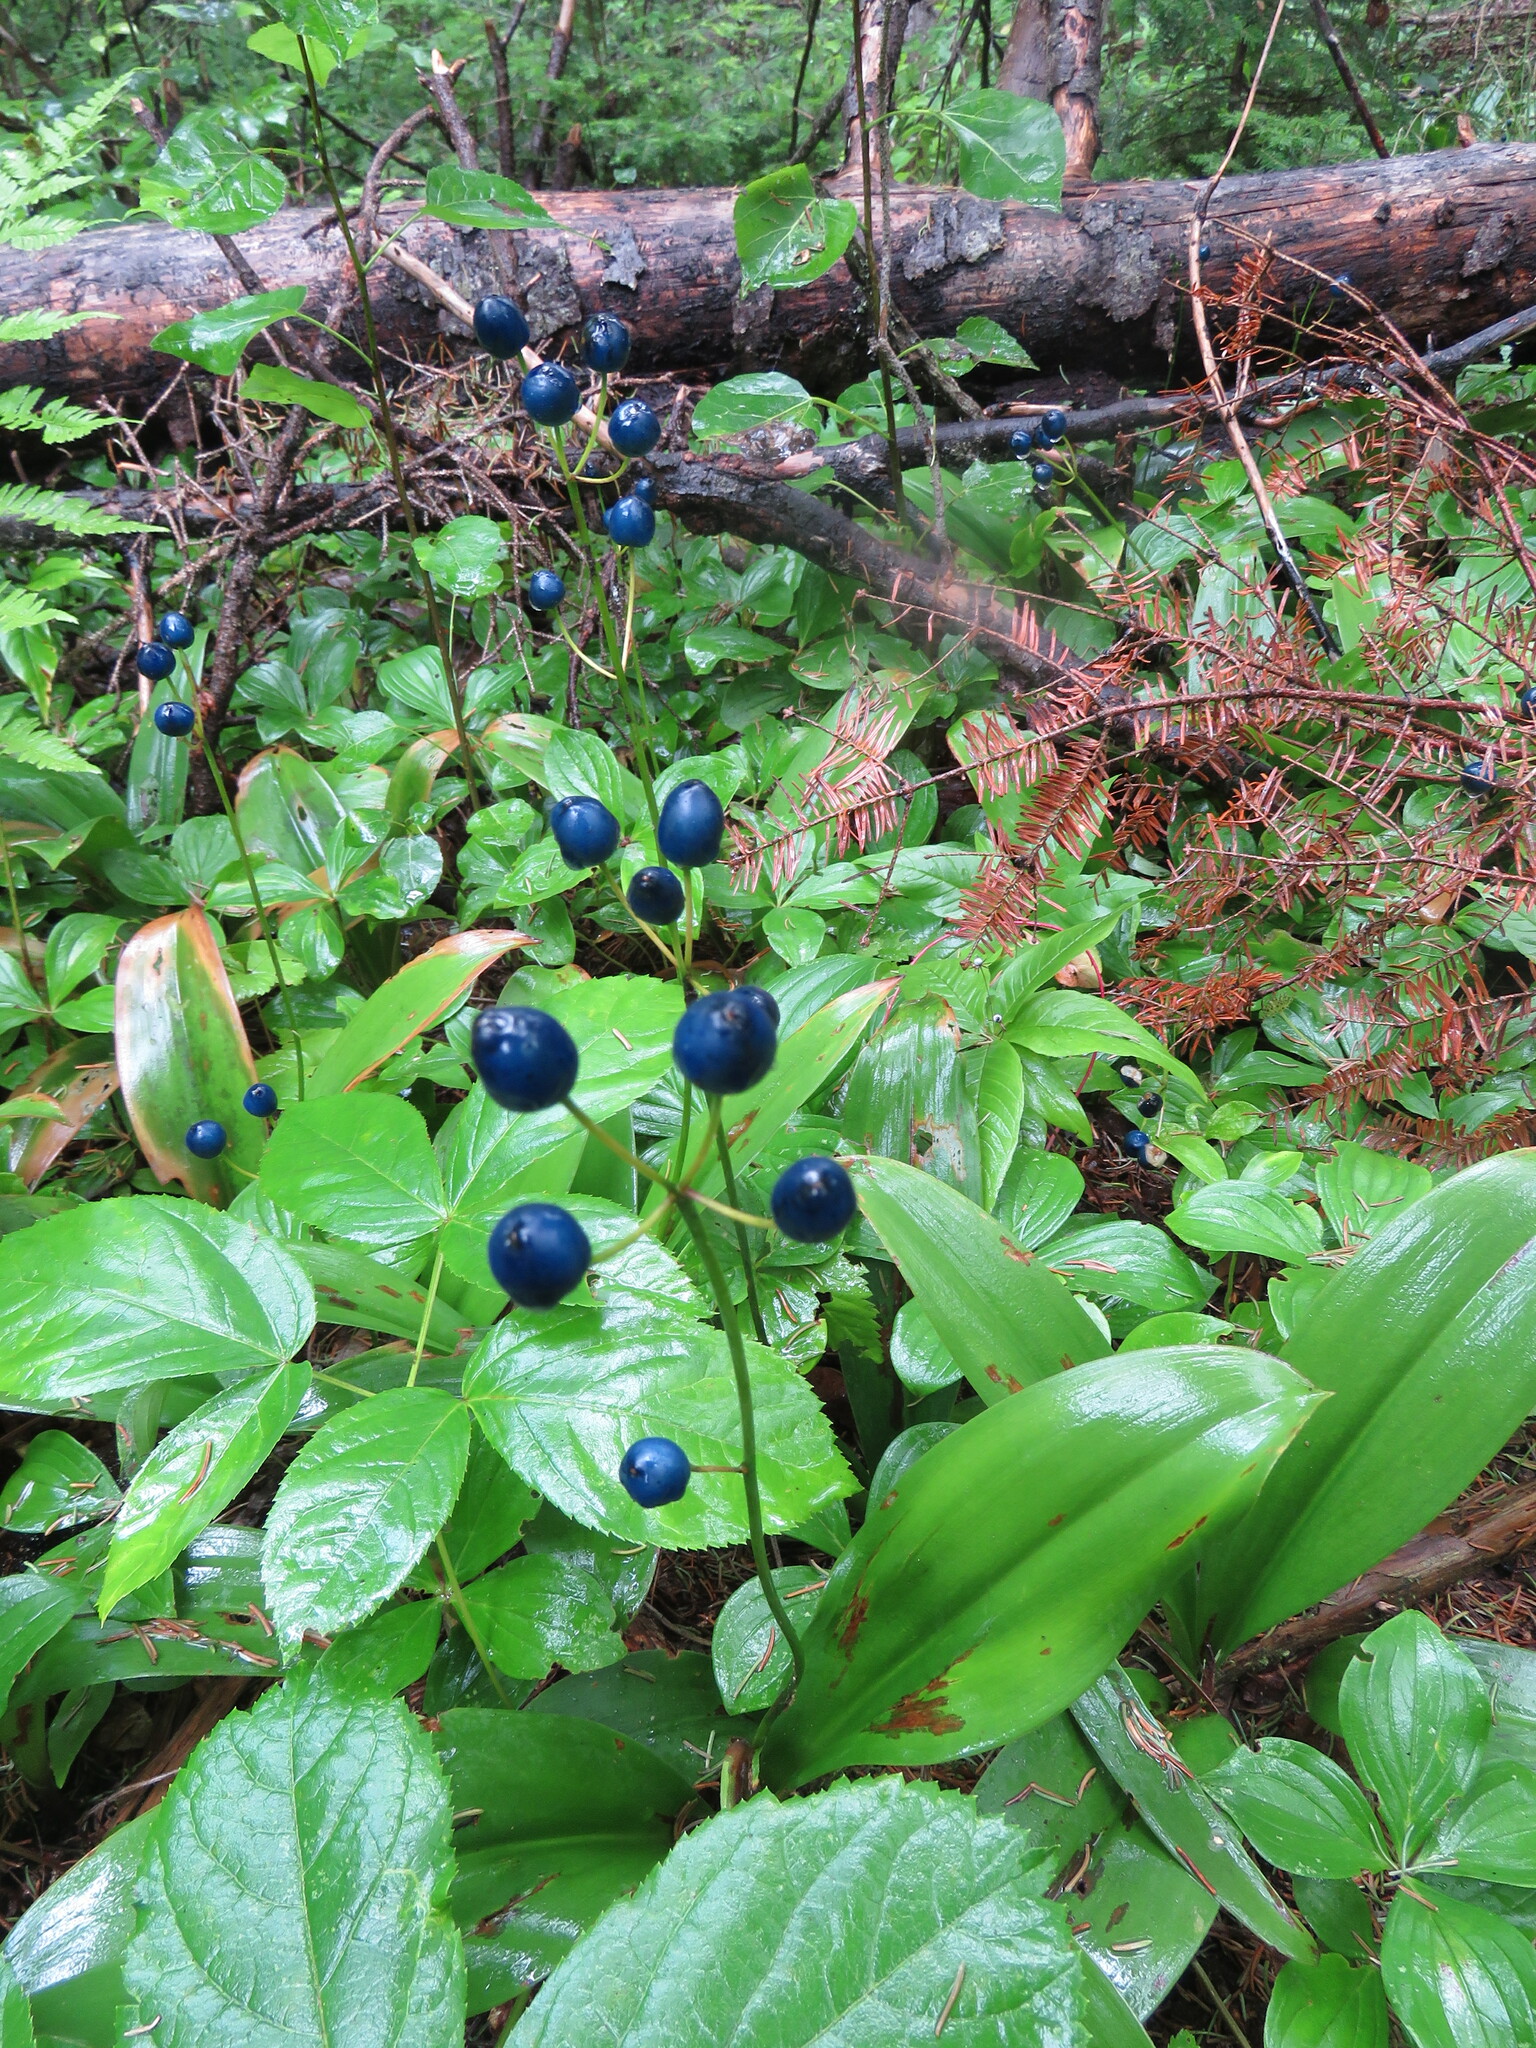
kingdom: Plantae
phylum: Tracheophyta
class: Liliopsida
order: Liliales
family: Liliaceae
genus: Clintonia
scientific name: Clintonia borealis
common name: Yellow clintonia
